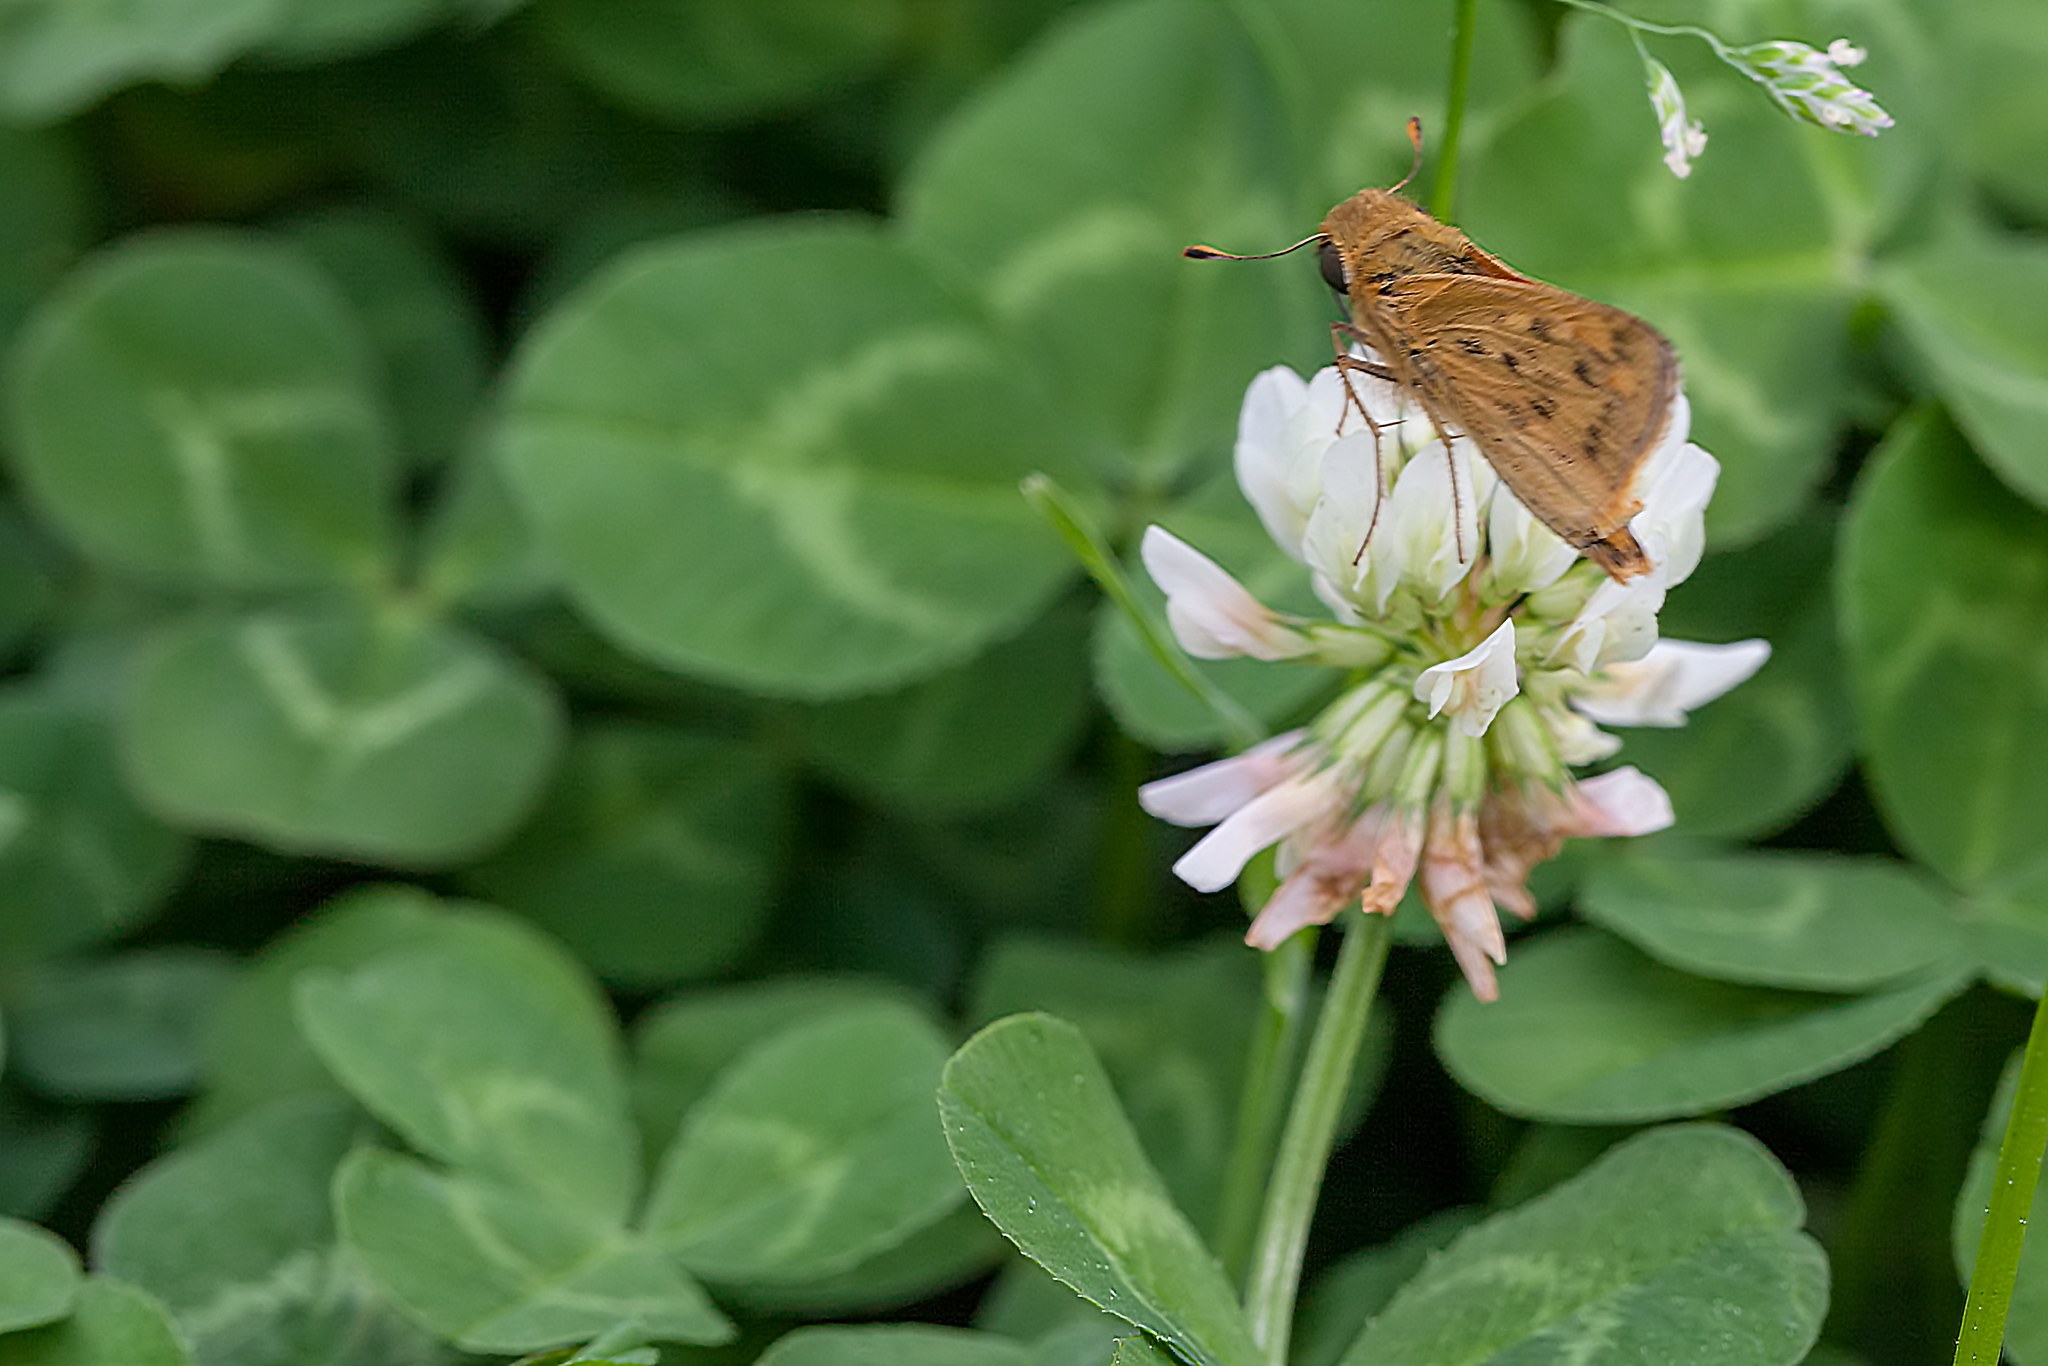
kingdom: Animalia
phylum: Arthropoda
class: Insecta
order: Lepidoptera
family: Hesperiidae
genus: Hylephila
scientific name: Hylephila phyleus
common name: Fiery skipper
